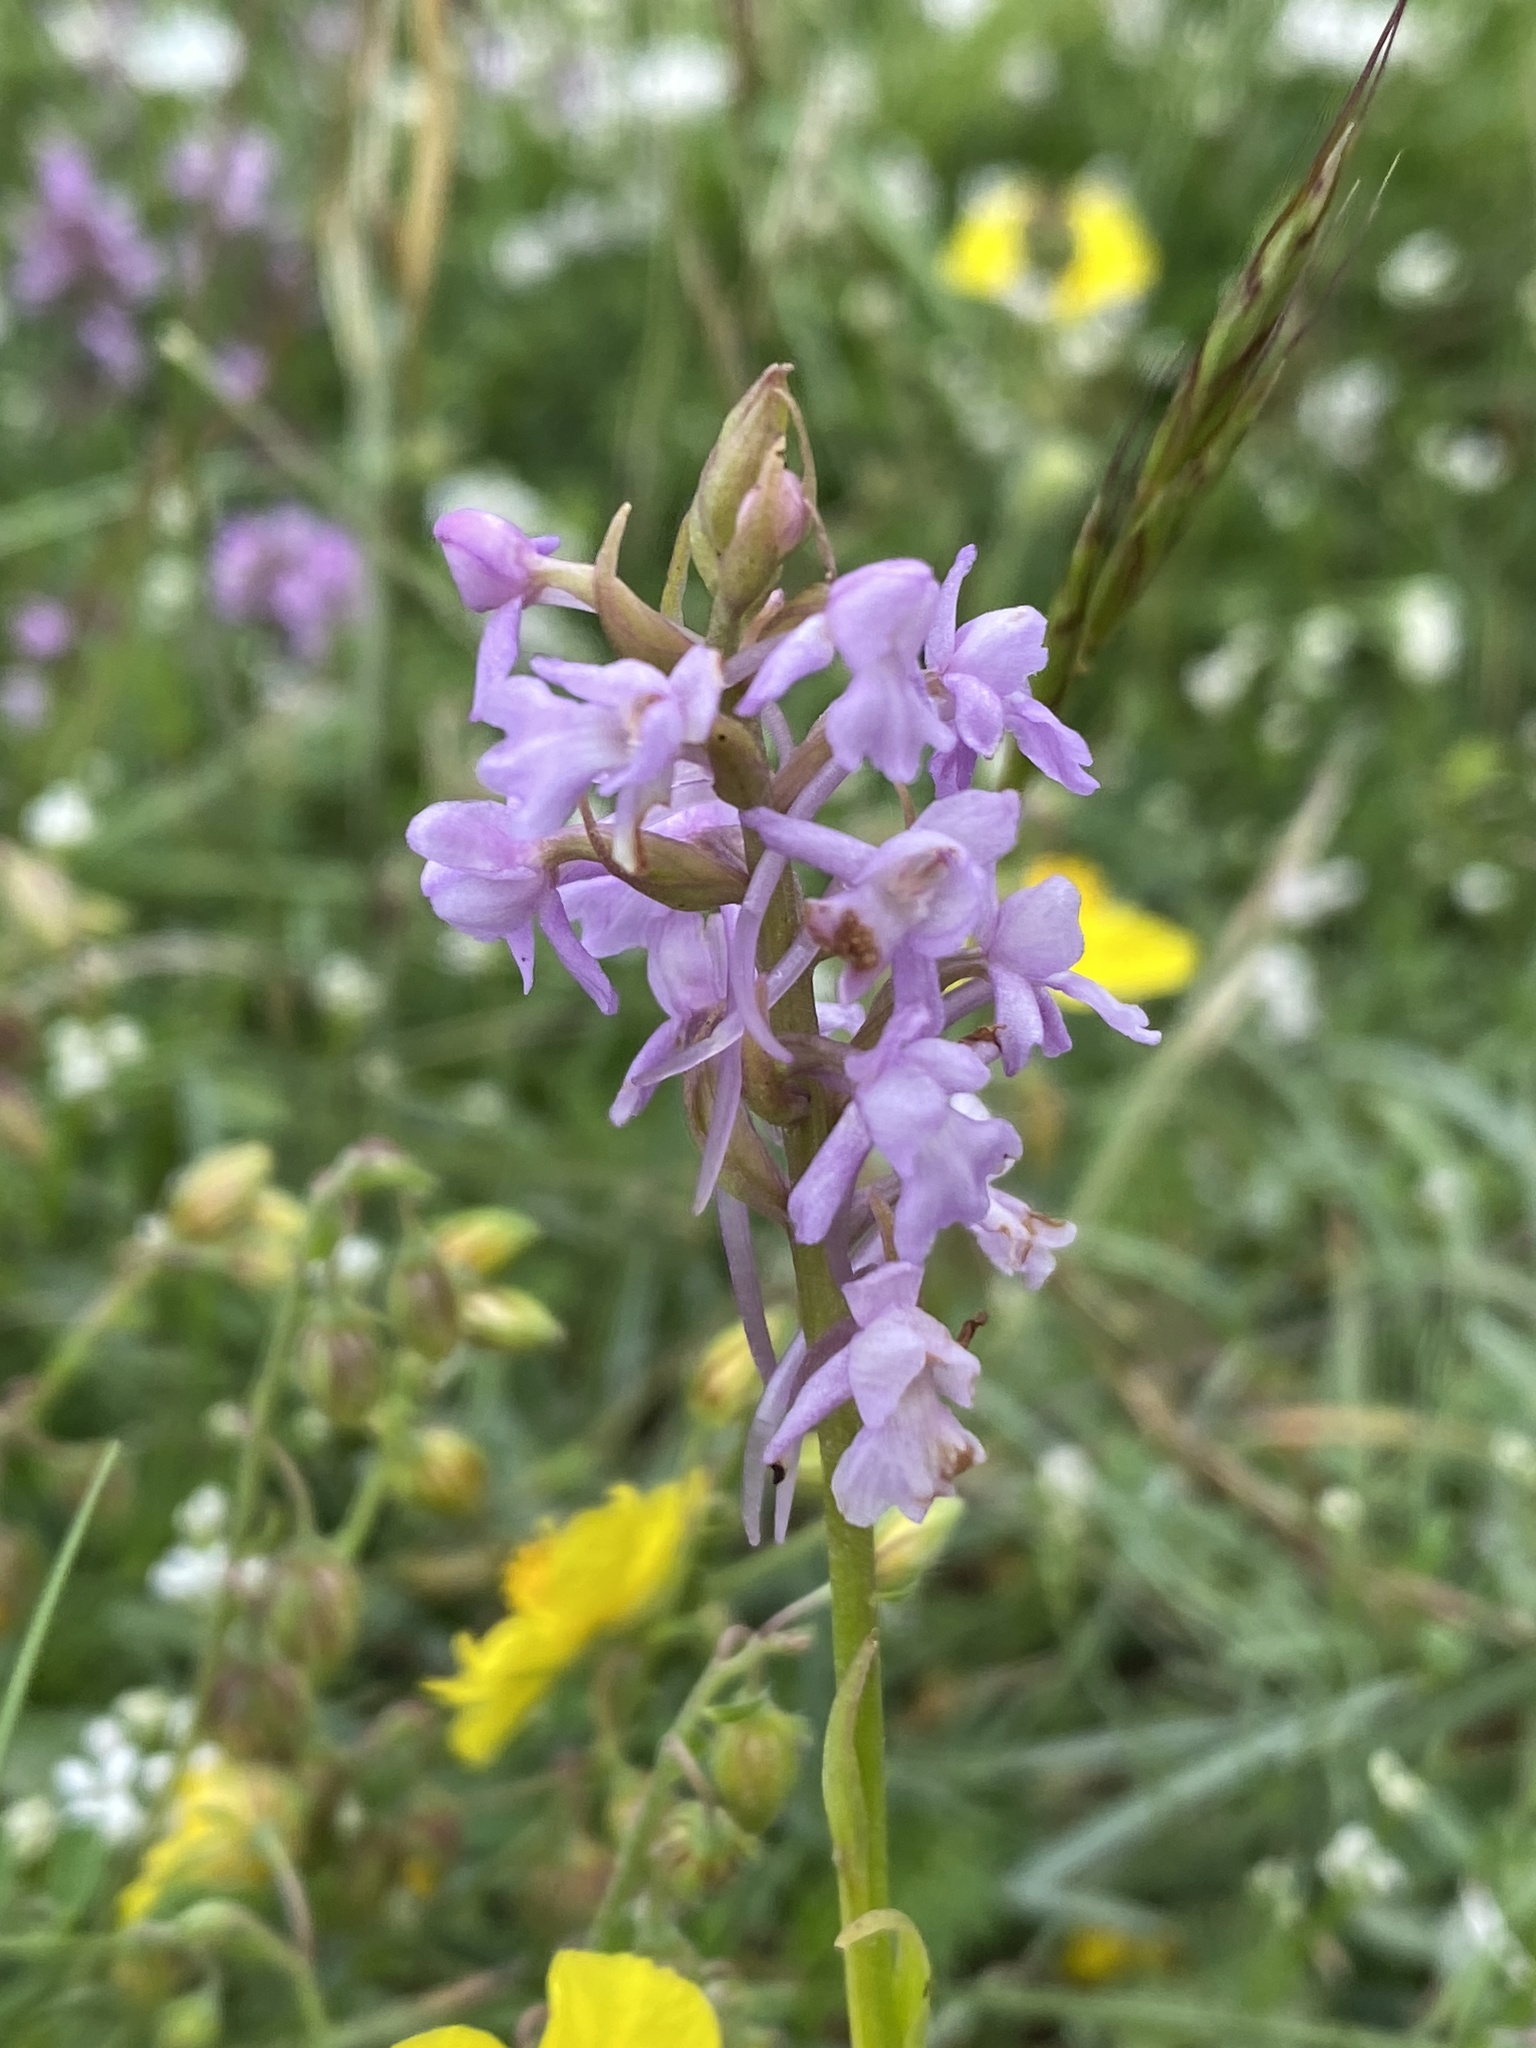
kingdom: Plantae
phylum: Tracheophyta
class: Liliopsida
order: Asparagales
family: Orchidaceae
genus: Gymnadenia
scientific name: Gymnadenia conopsea
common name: Fragrant orchid
